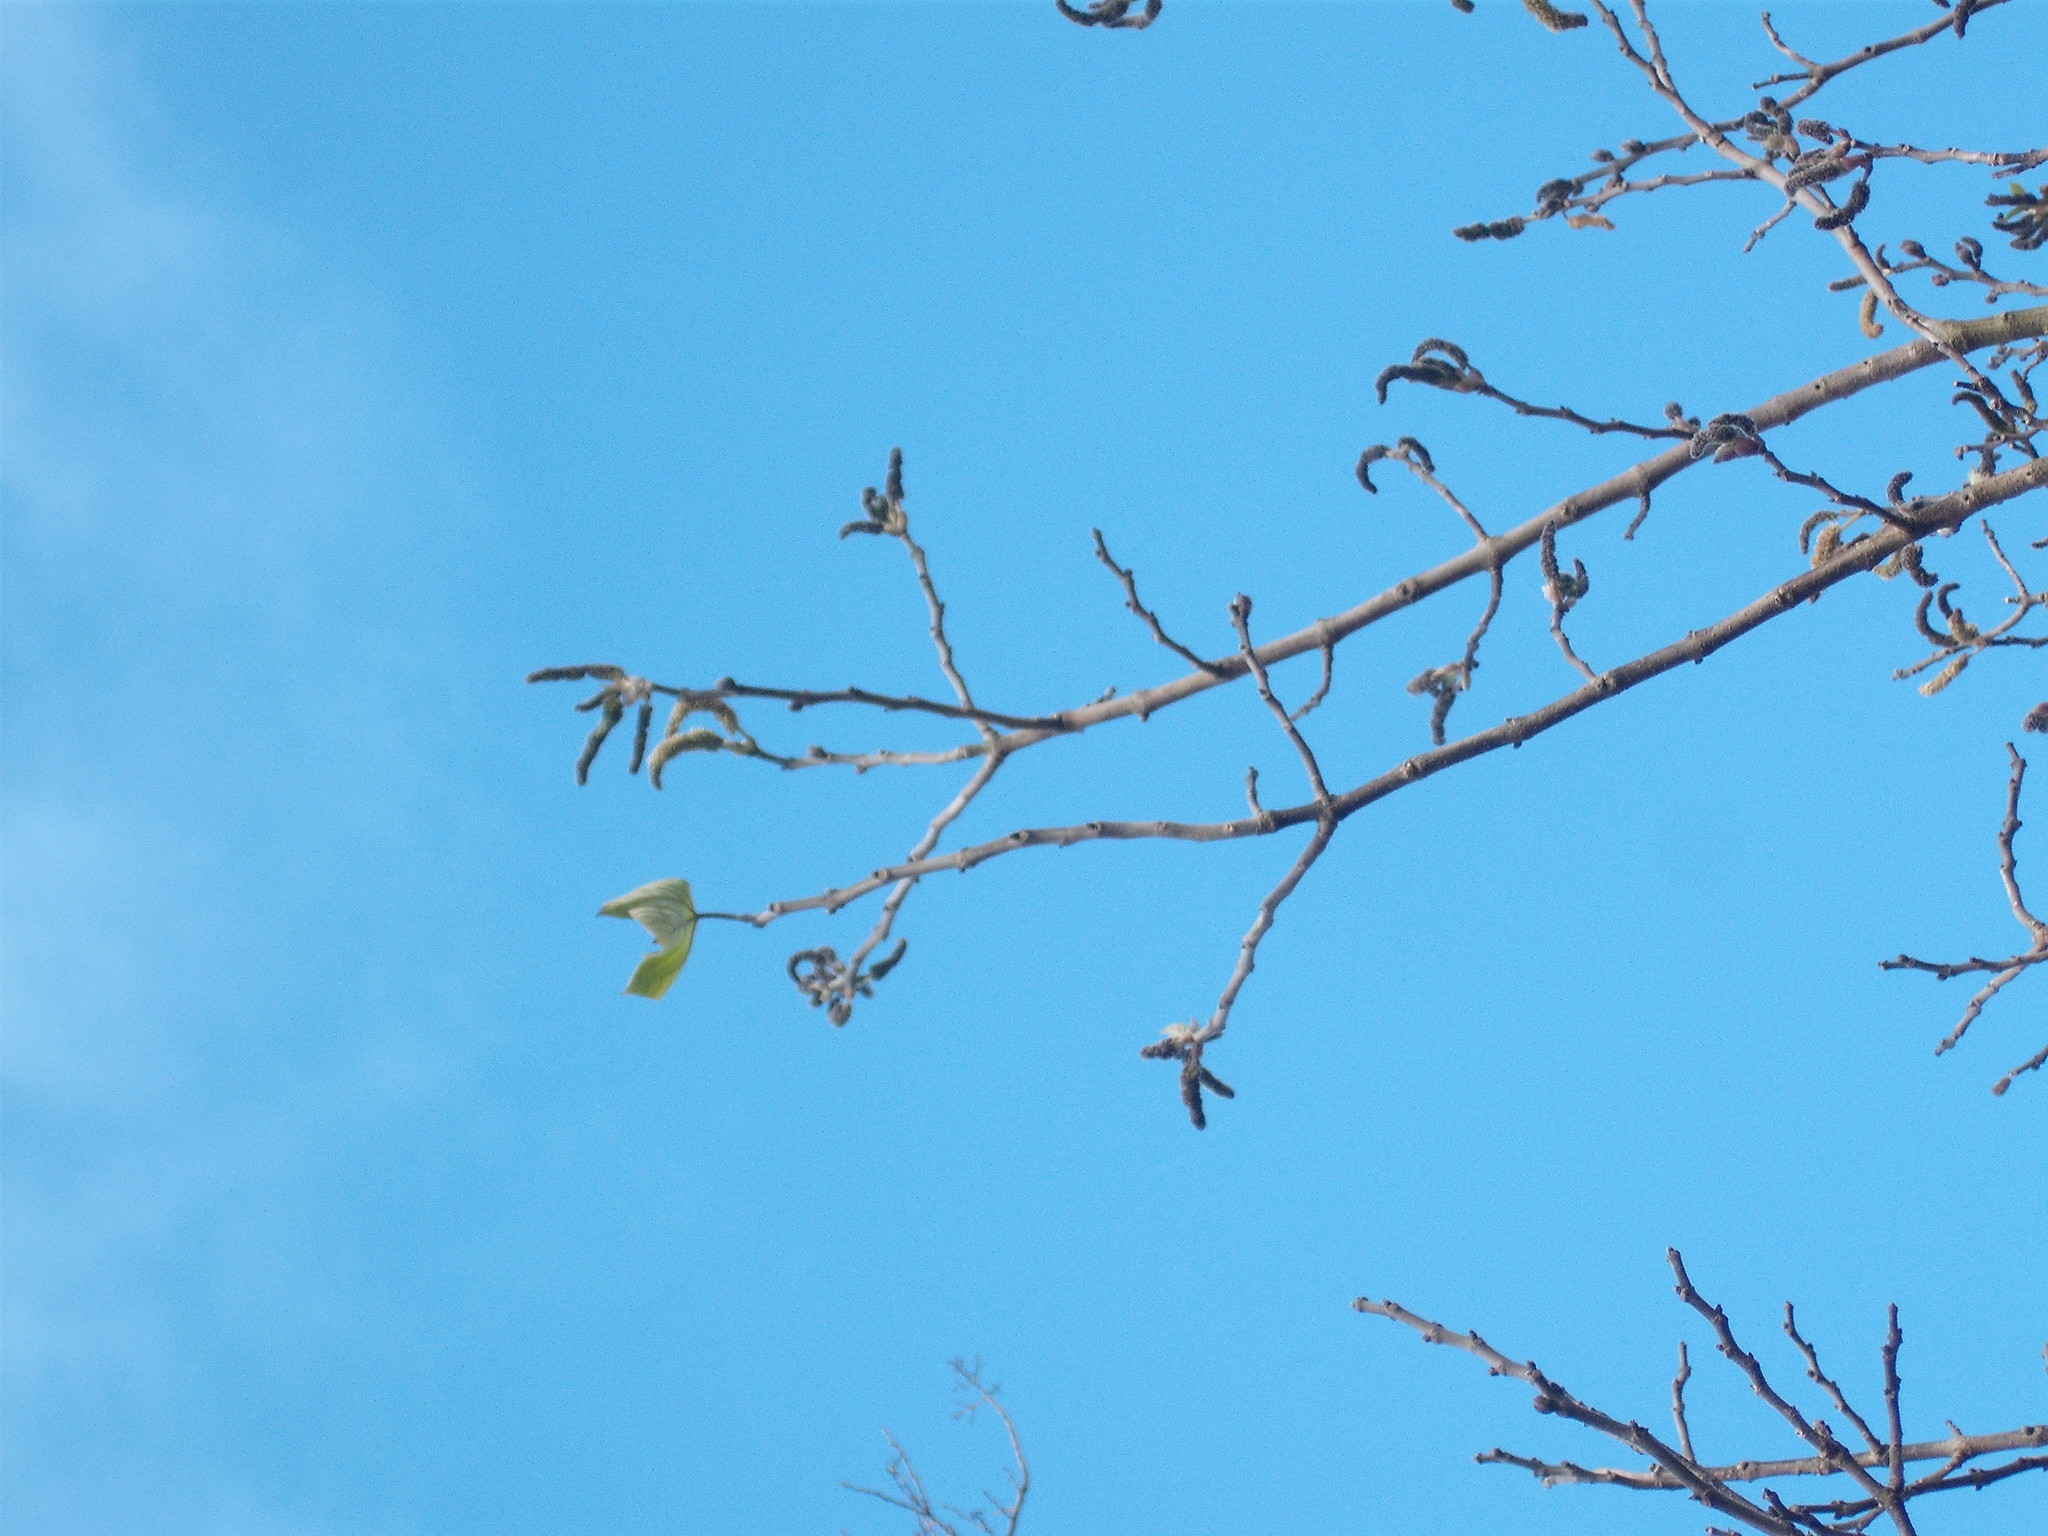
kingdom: Plantae
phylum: Tracheophyta
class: Magnoliopsida
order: Rosales
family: Moraceae
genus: Broussonetia
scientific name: Broussonetia papyrifera
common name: Paper mulberry
